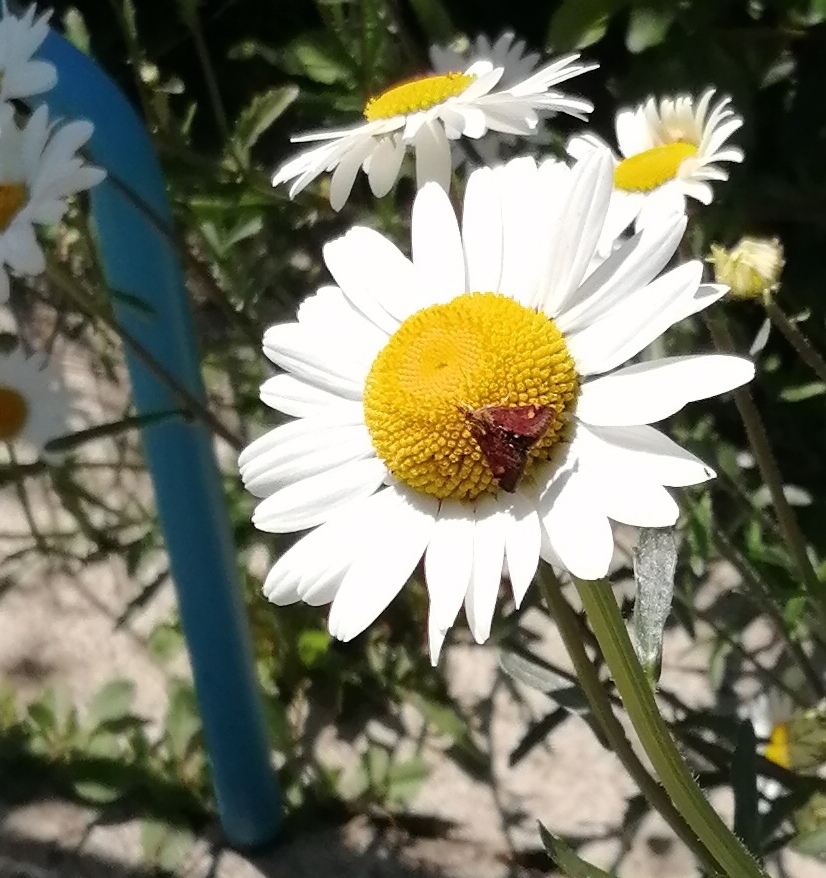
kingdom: Animalia
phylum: Arthropoda
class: Insecta
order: Lepidoptera
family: Crambidae
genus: Pyrausta
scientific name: Pyrausta aurata
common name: Small purple & gold
